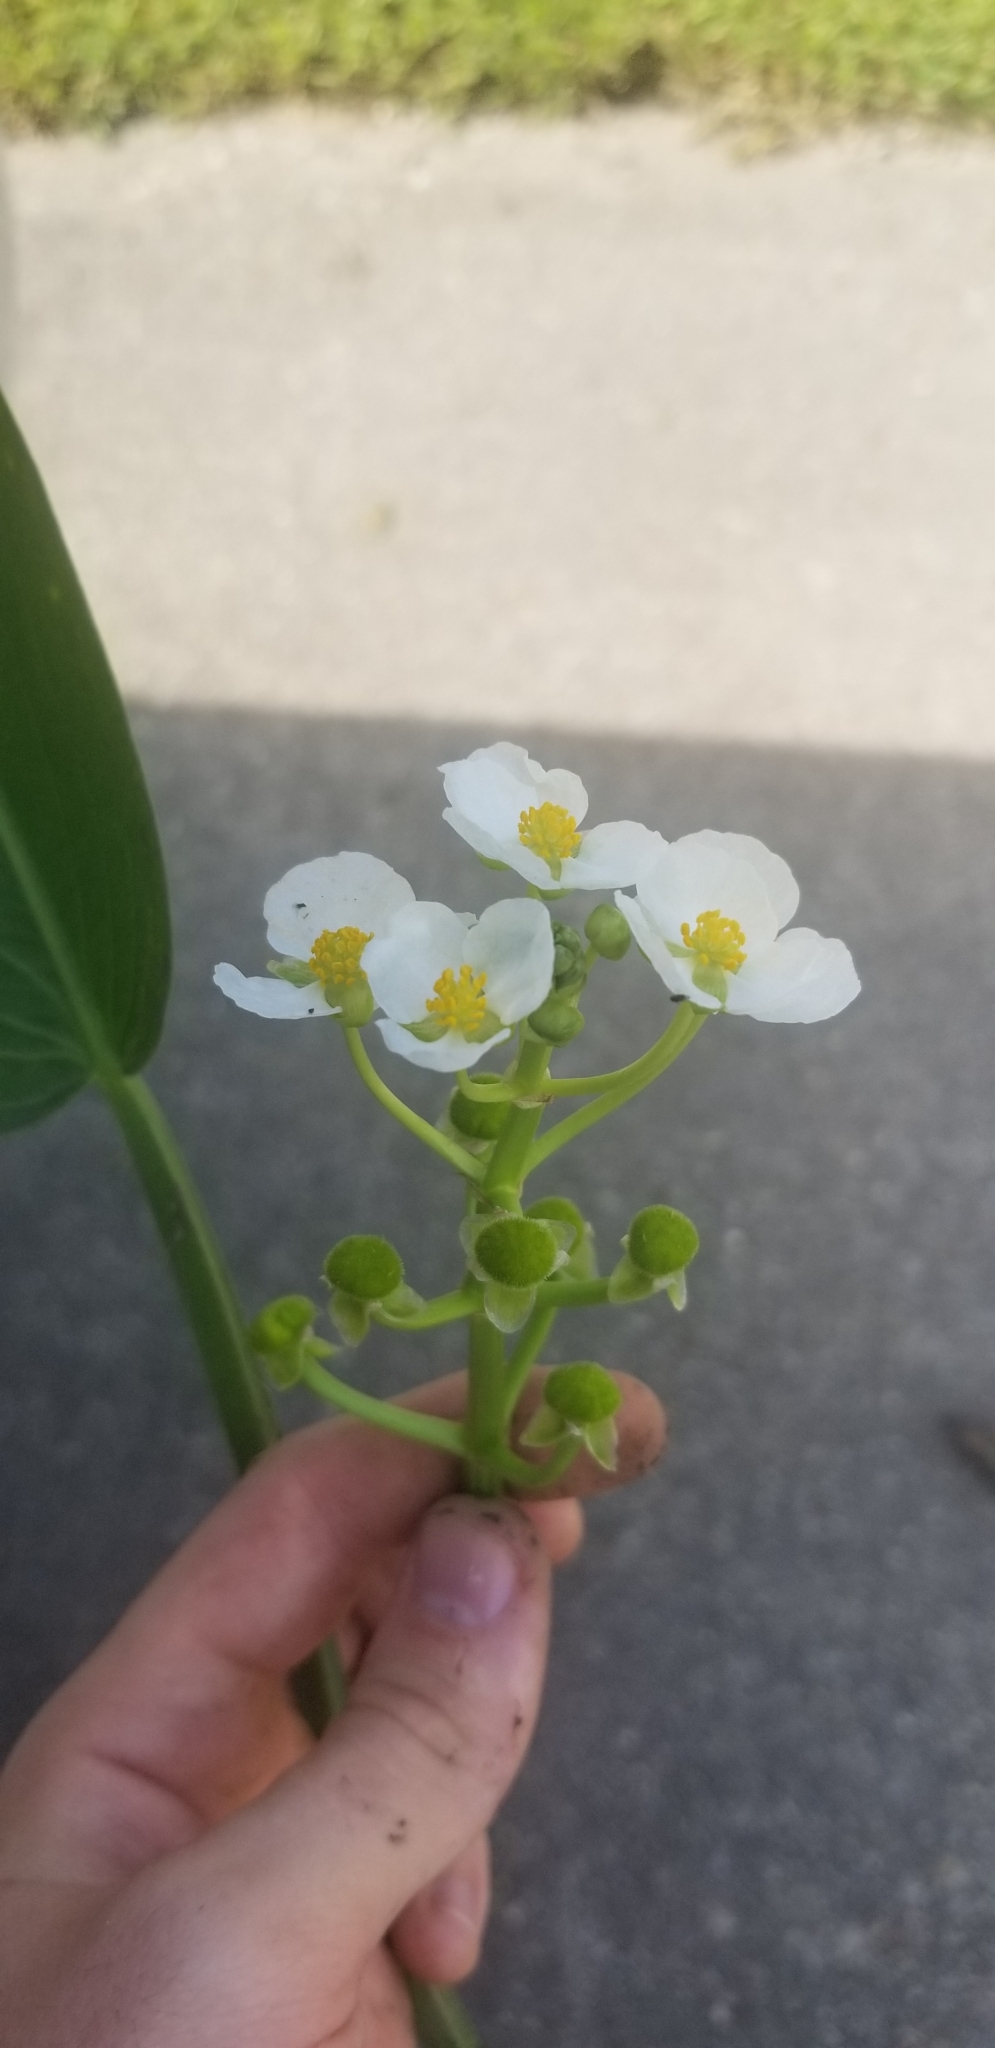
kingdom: Plantae
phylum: Tracheophyta
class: Liliopsida
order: Alismatales
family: Alismataceae
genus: Sagittaria
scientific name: Sagittaria platyphylla
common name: Broad-leaf arrowhead
